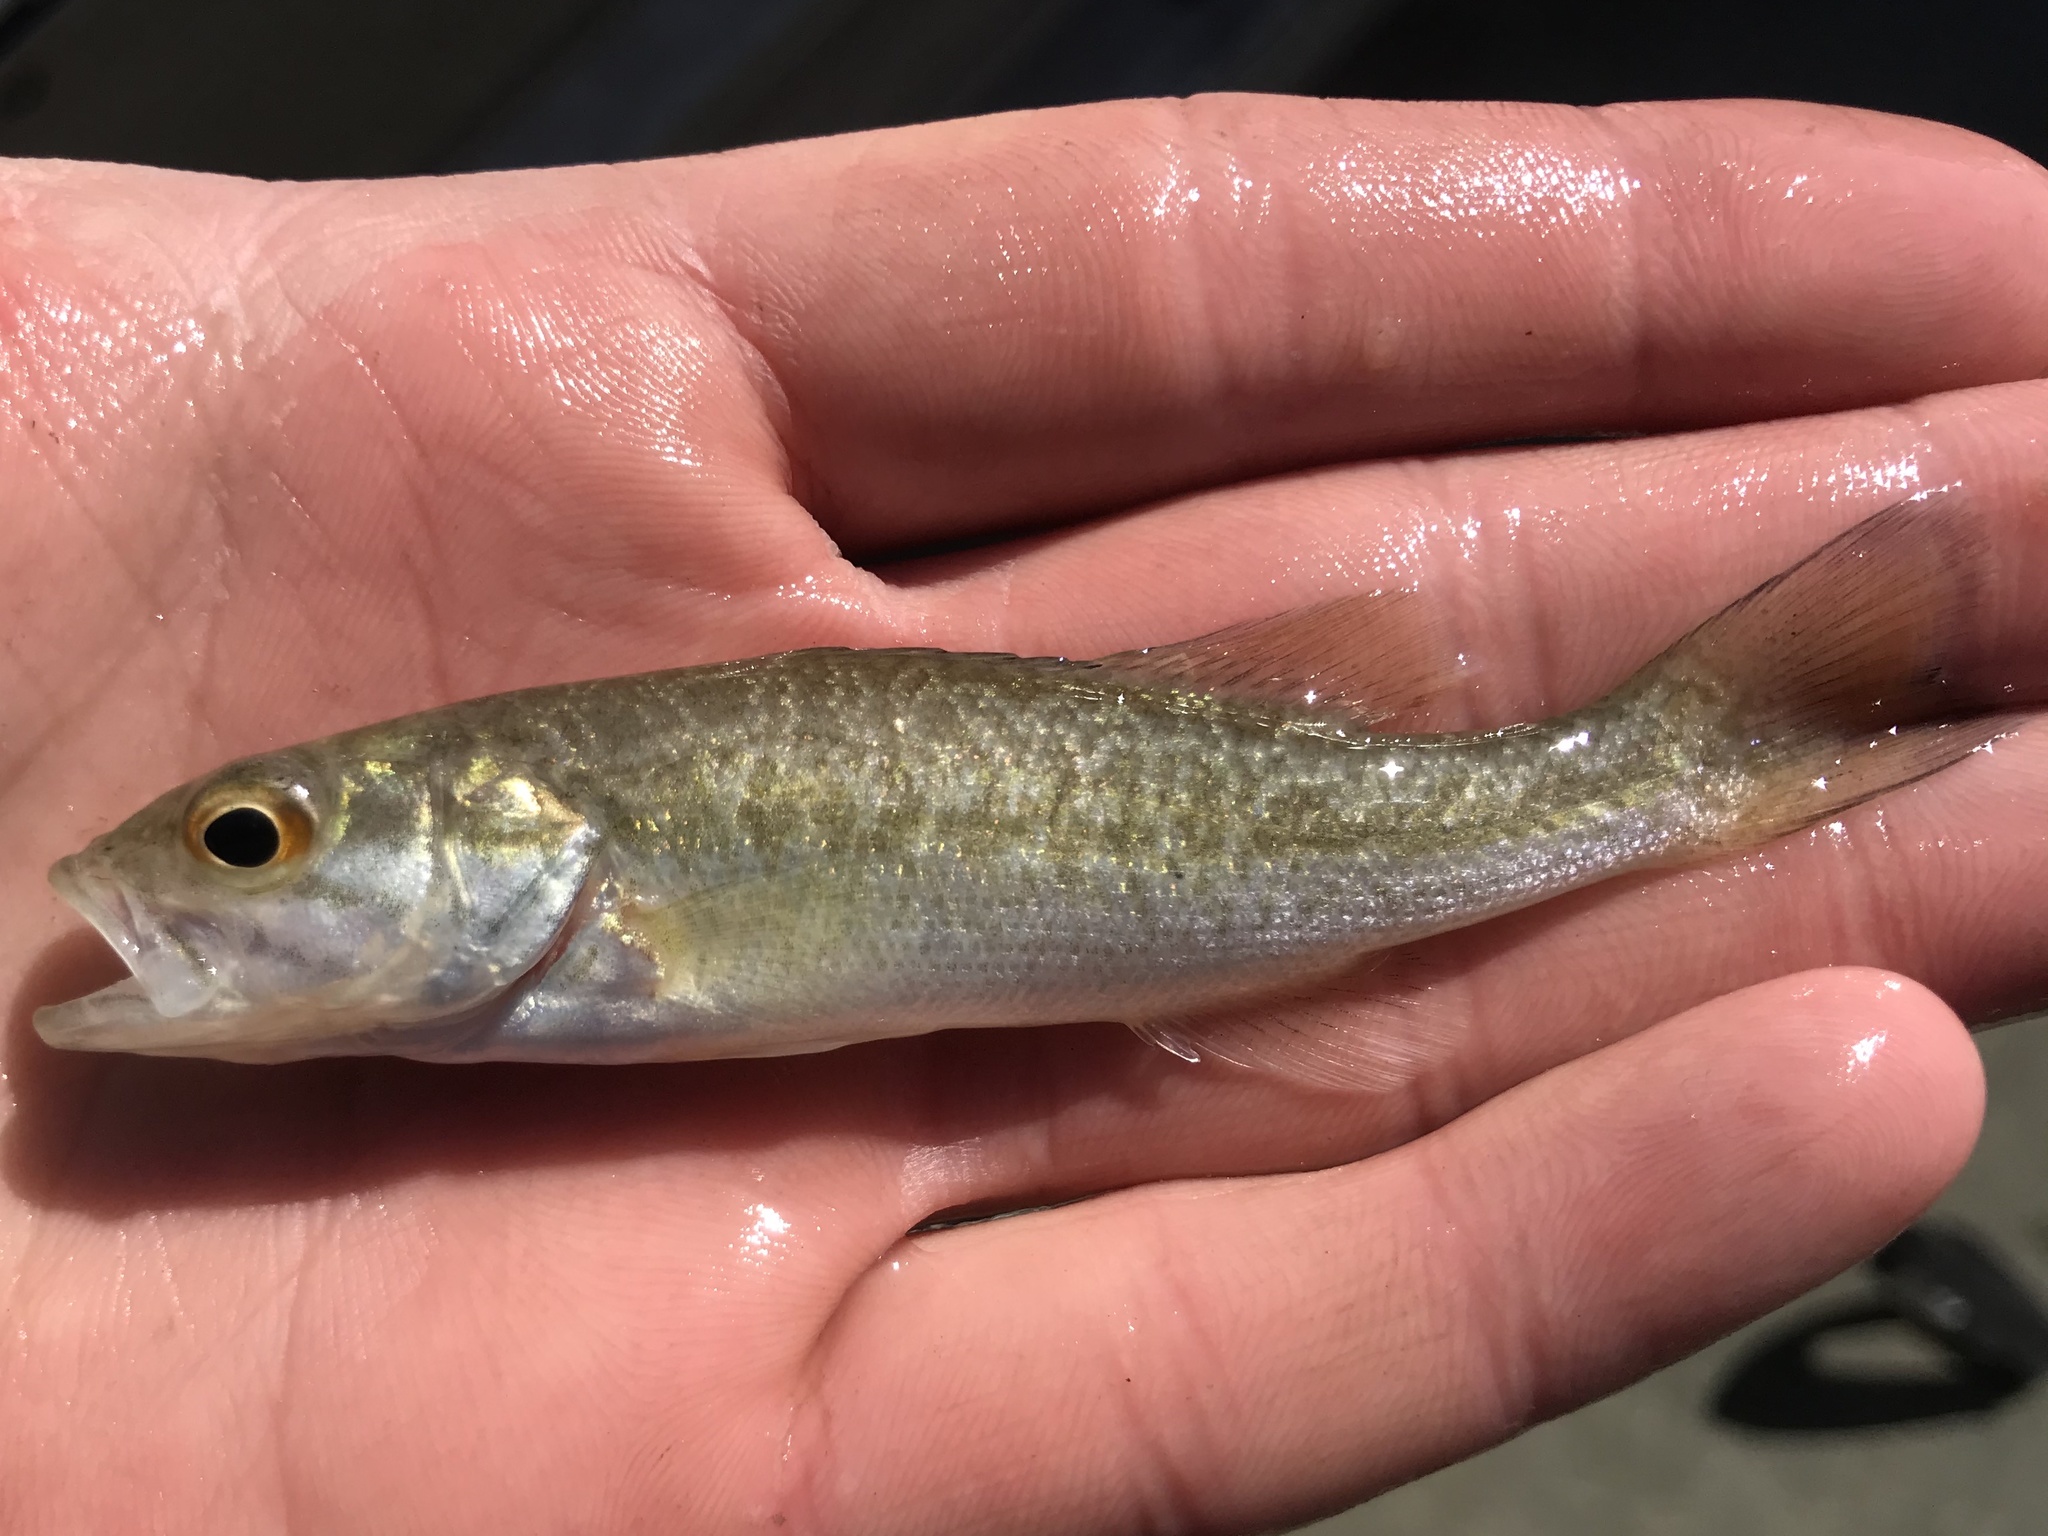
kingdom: Animalia
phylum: Chordata
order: Perciformes
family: Centrarchidae
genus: Micropterus
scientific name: Micropterus treculii
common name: Guadalupe bass
